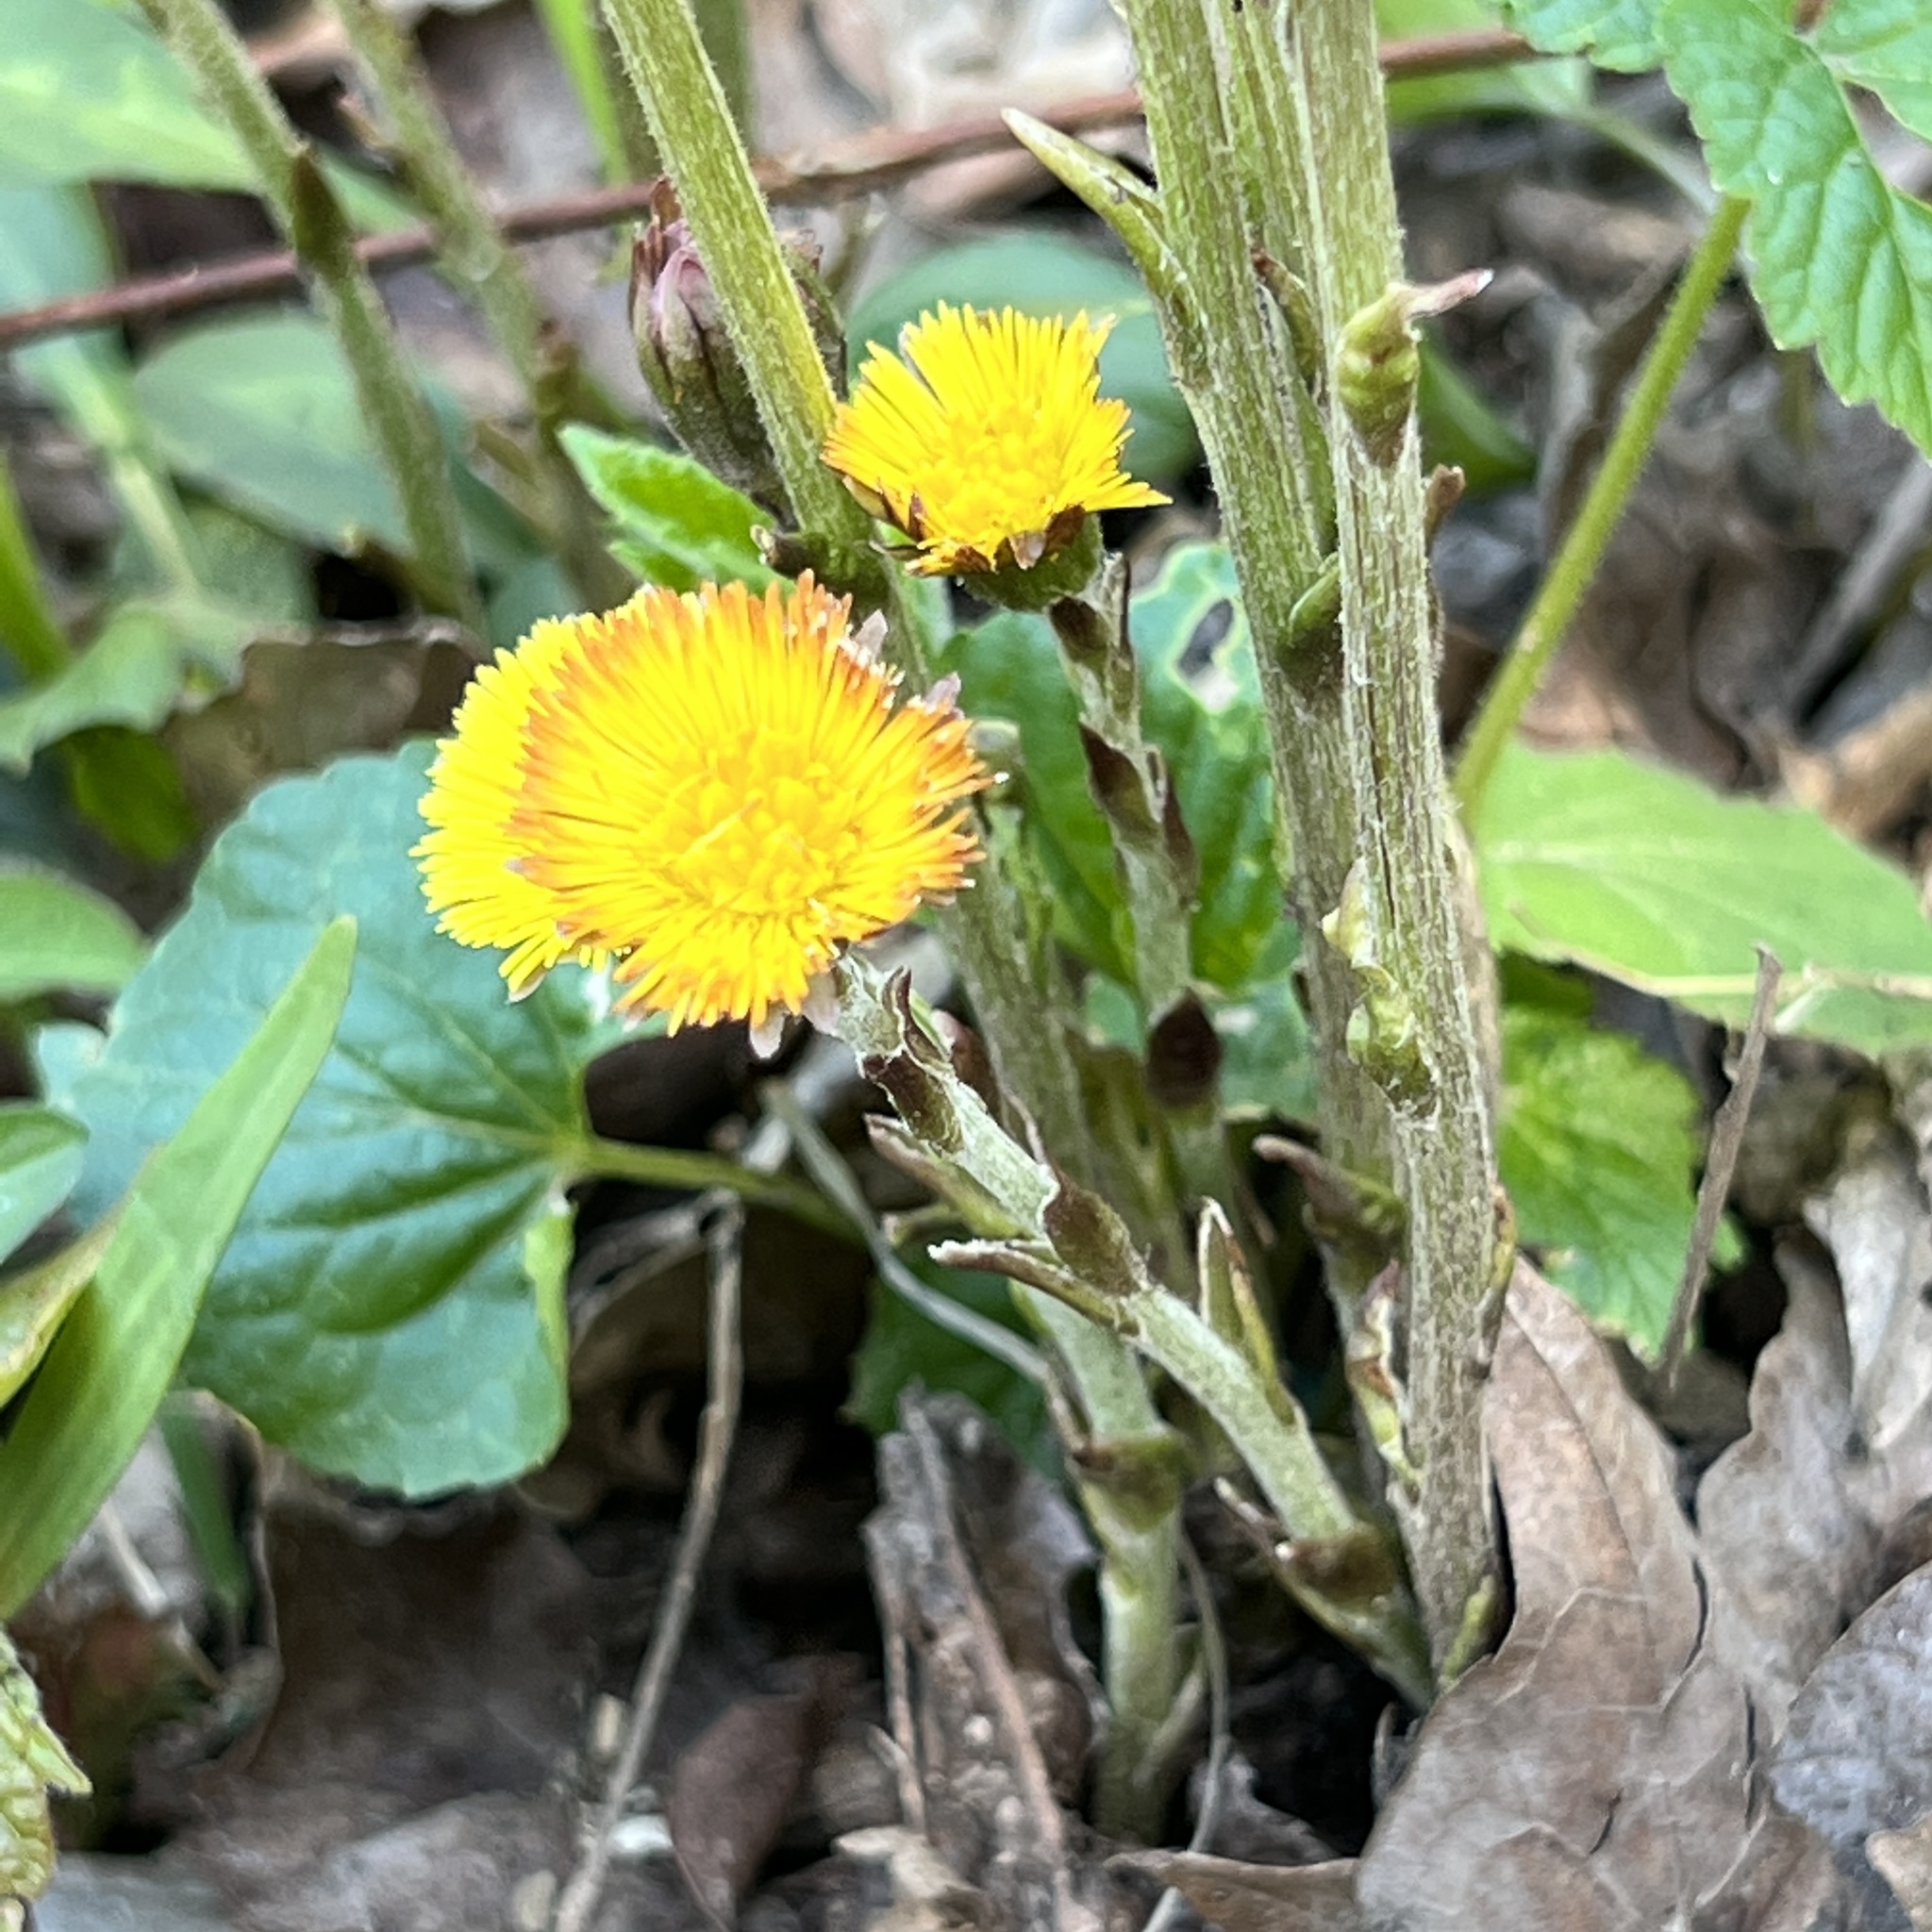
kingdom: Plantae
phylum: Tracheophyta
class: Magnoliopsida
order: Asterales
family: Asteraceae
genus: Tussilago
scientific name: Tussilago farfara
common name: Coltsfoot
